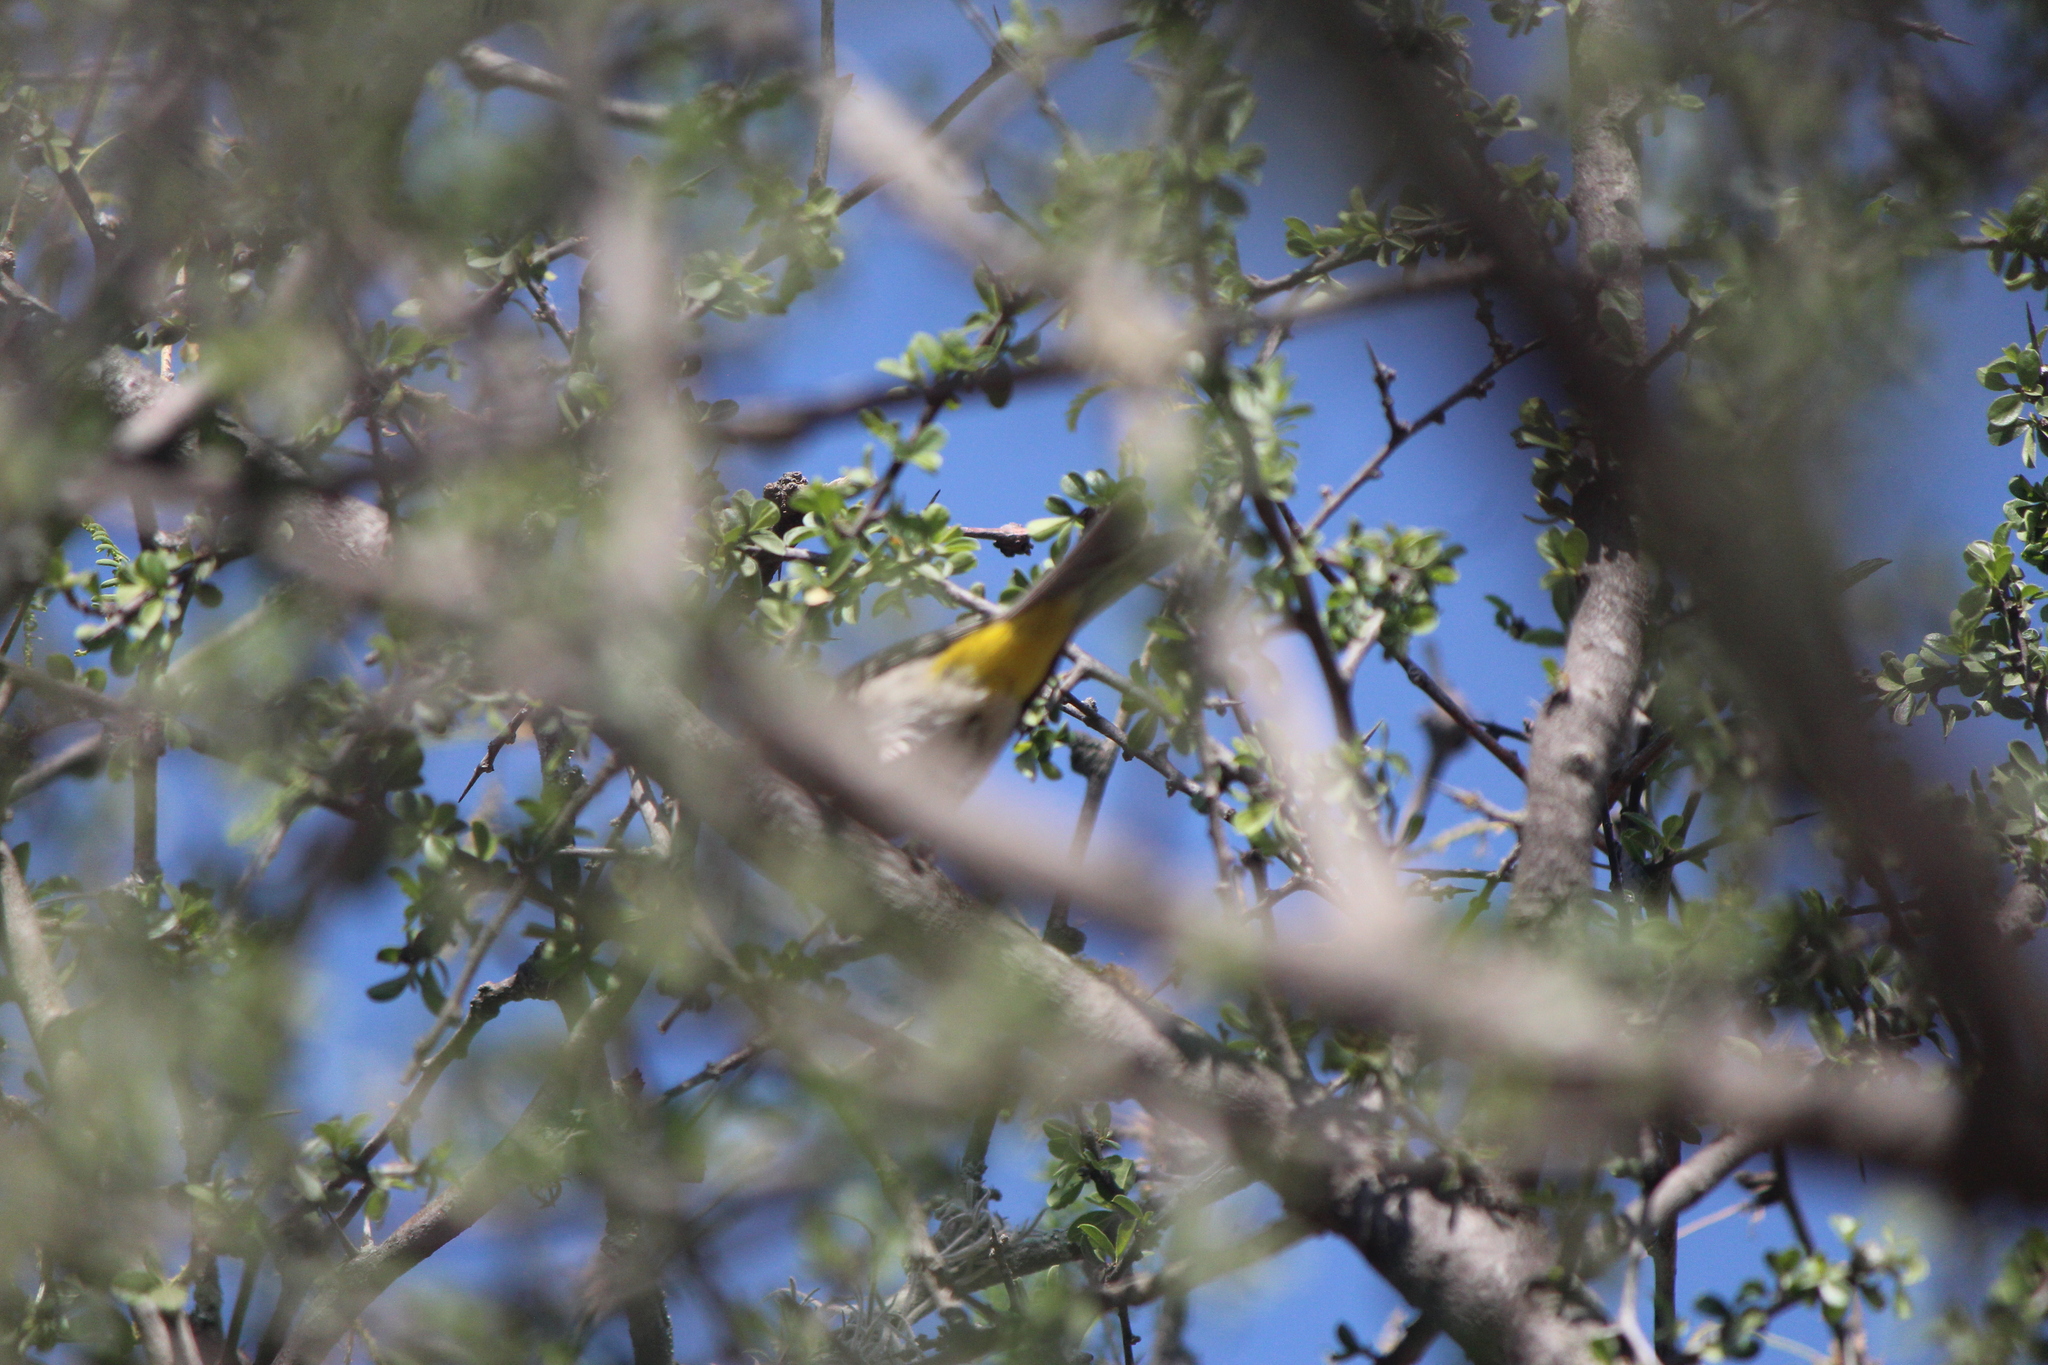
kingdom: Animalia
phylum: Chordata
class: Aves
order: Passeriformes
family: Parulidae
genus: Leiothlypis
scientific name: Leiothlypis virginiae
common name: Virginia's warbler
